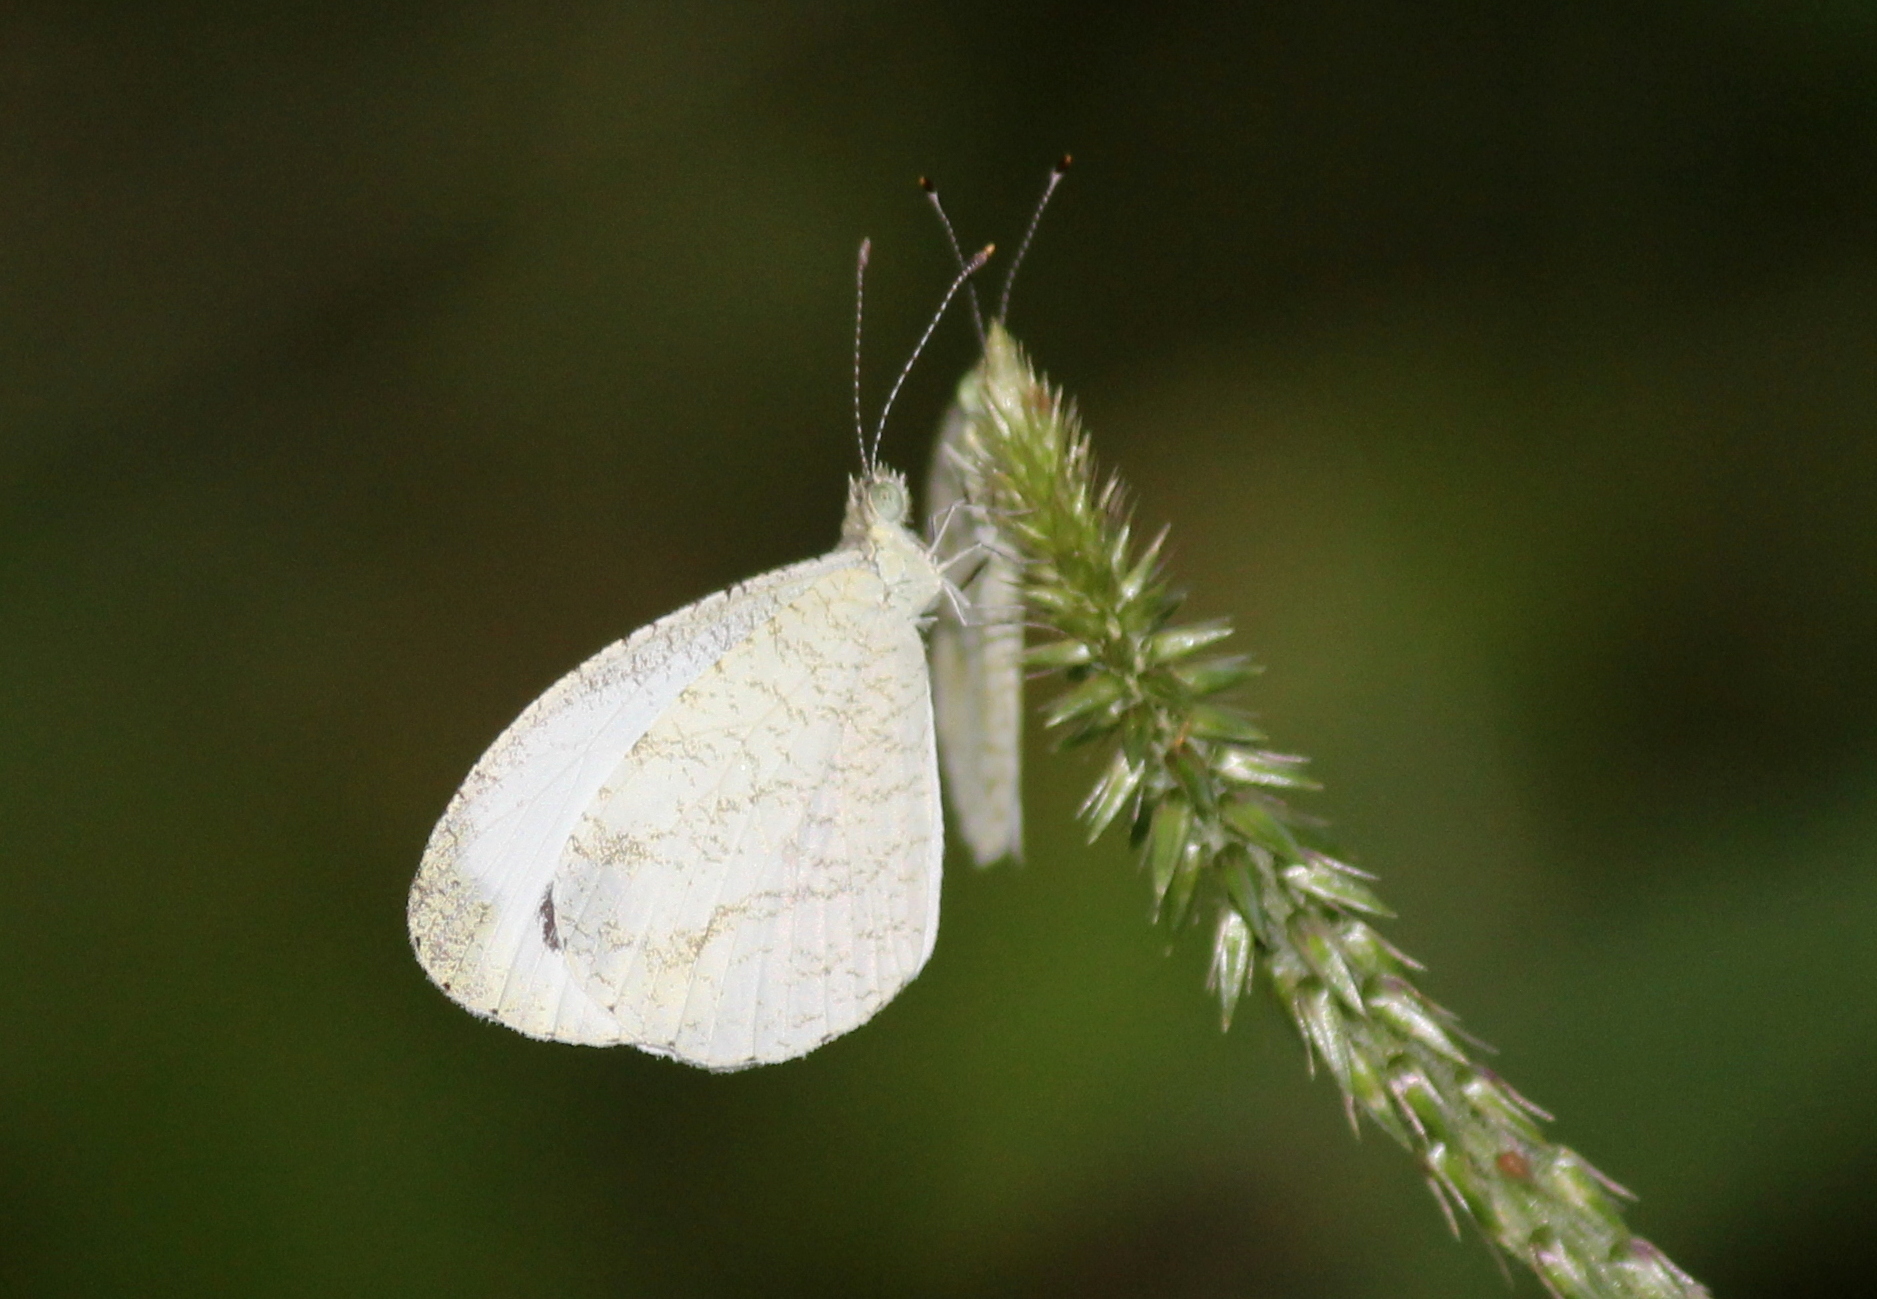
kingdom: Animalia
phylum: Arthropoda
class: Insecta
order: Lepidoptera
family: Pieridae
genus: Leptosia
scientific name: Leptosia nina
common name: Psyche
